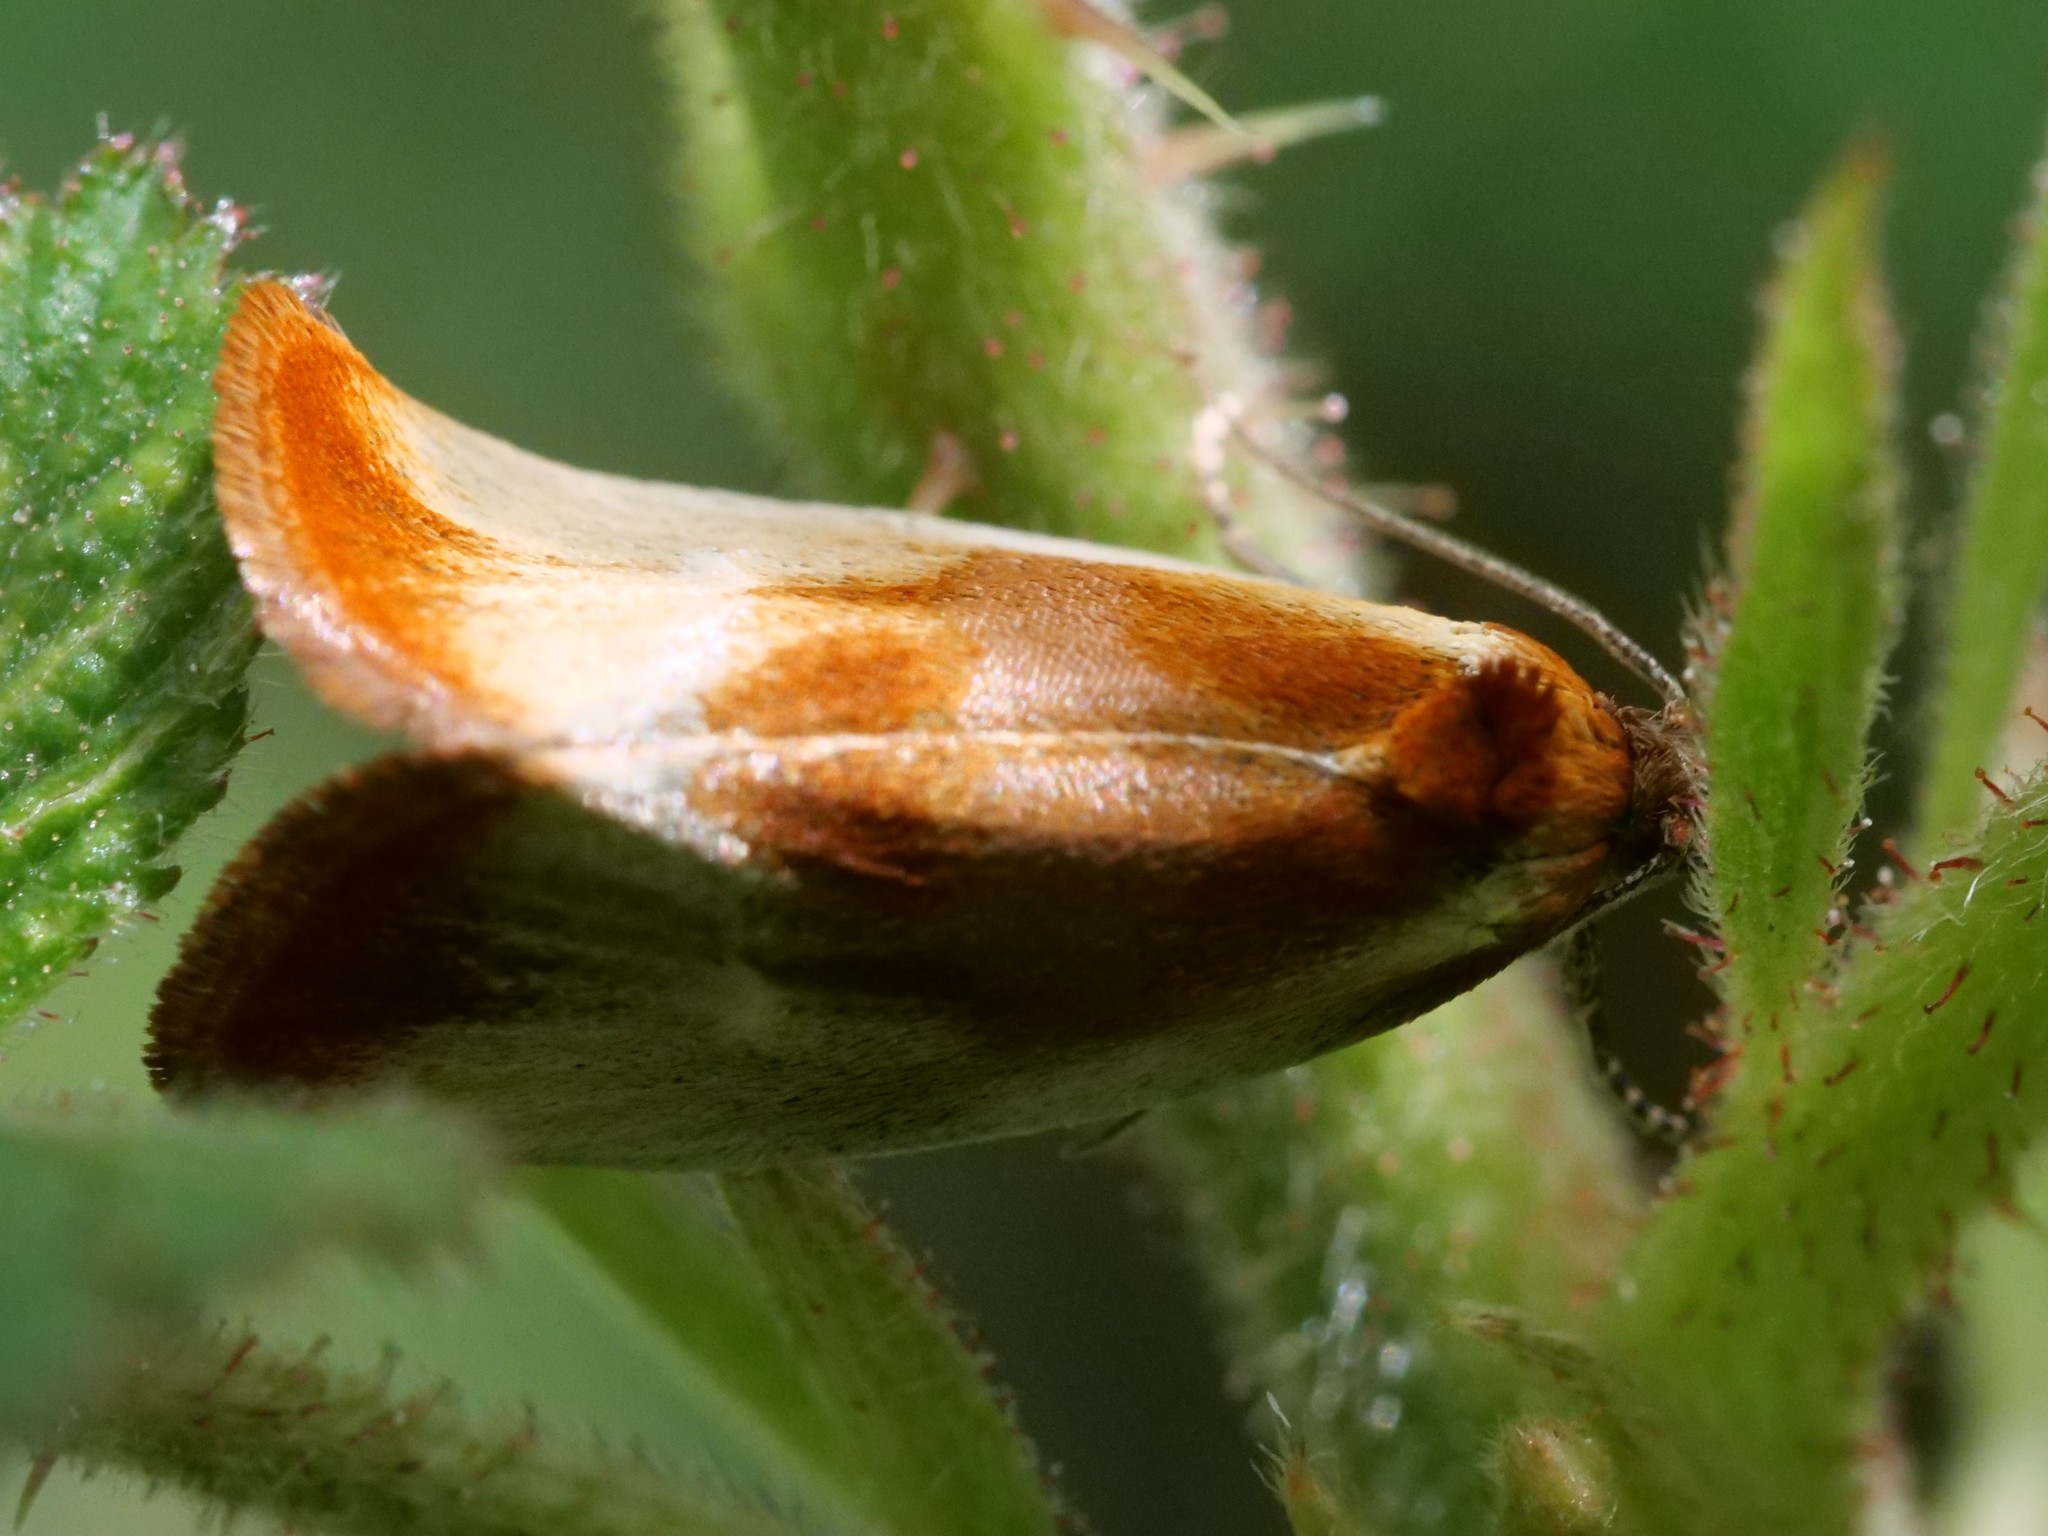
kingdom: Animalia
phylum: Arthropoda
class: Insecta
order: Lepidoptera
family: Tortricidae
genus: Eulia
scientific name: Eulia ministrana
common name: Brassy twist
